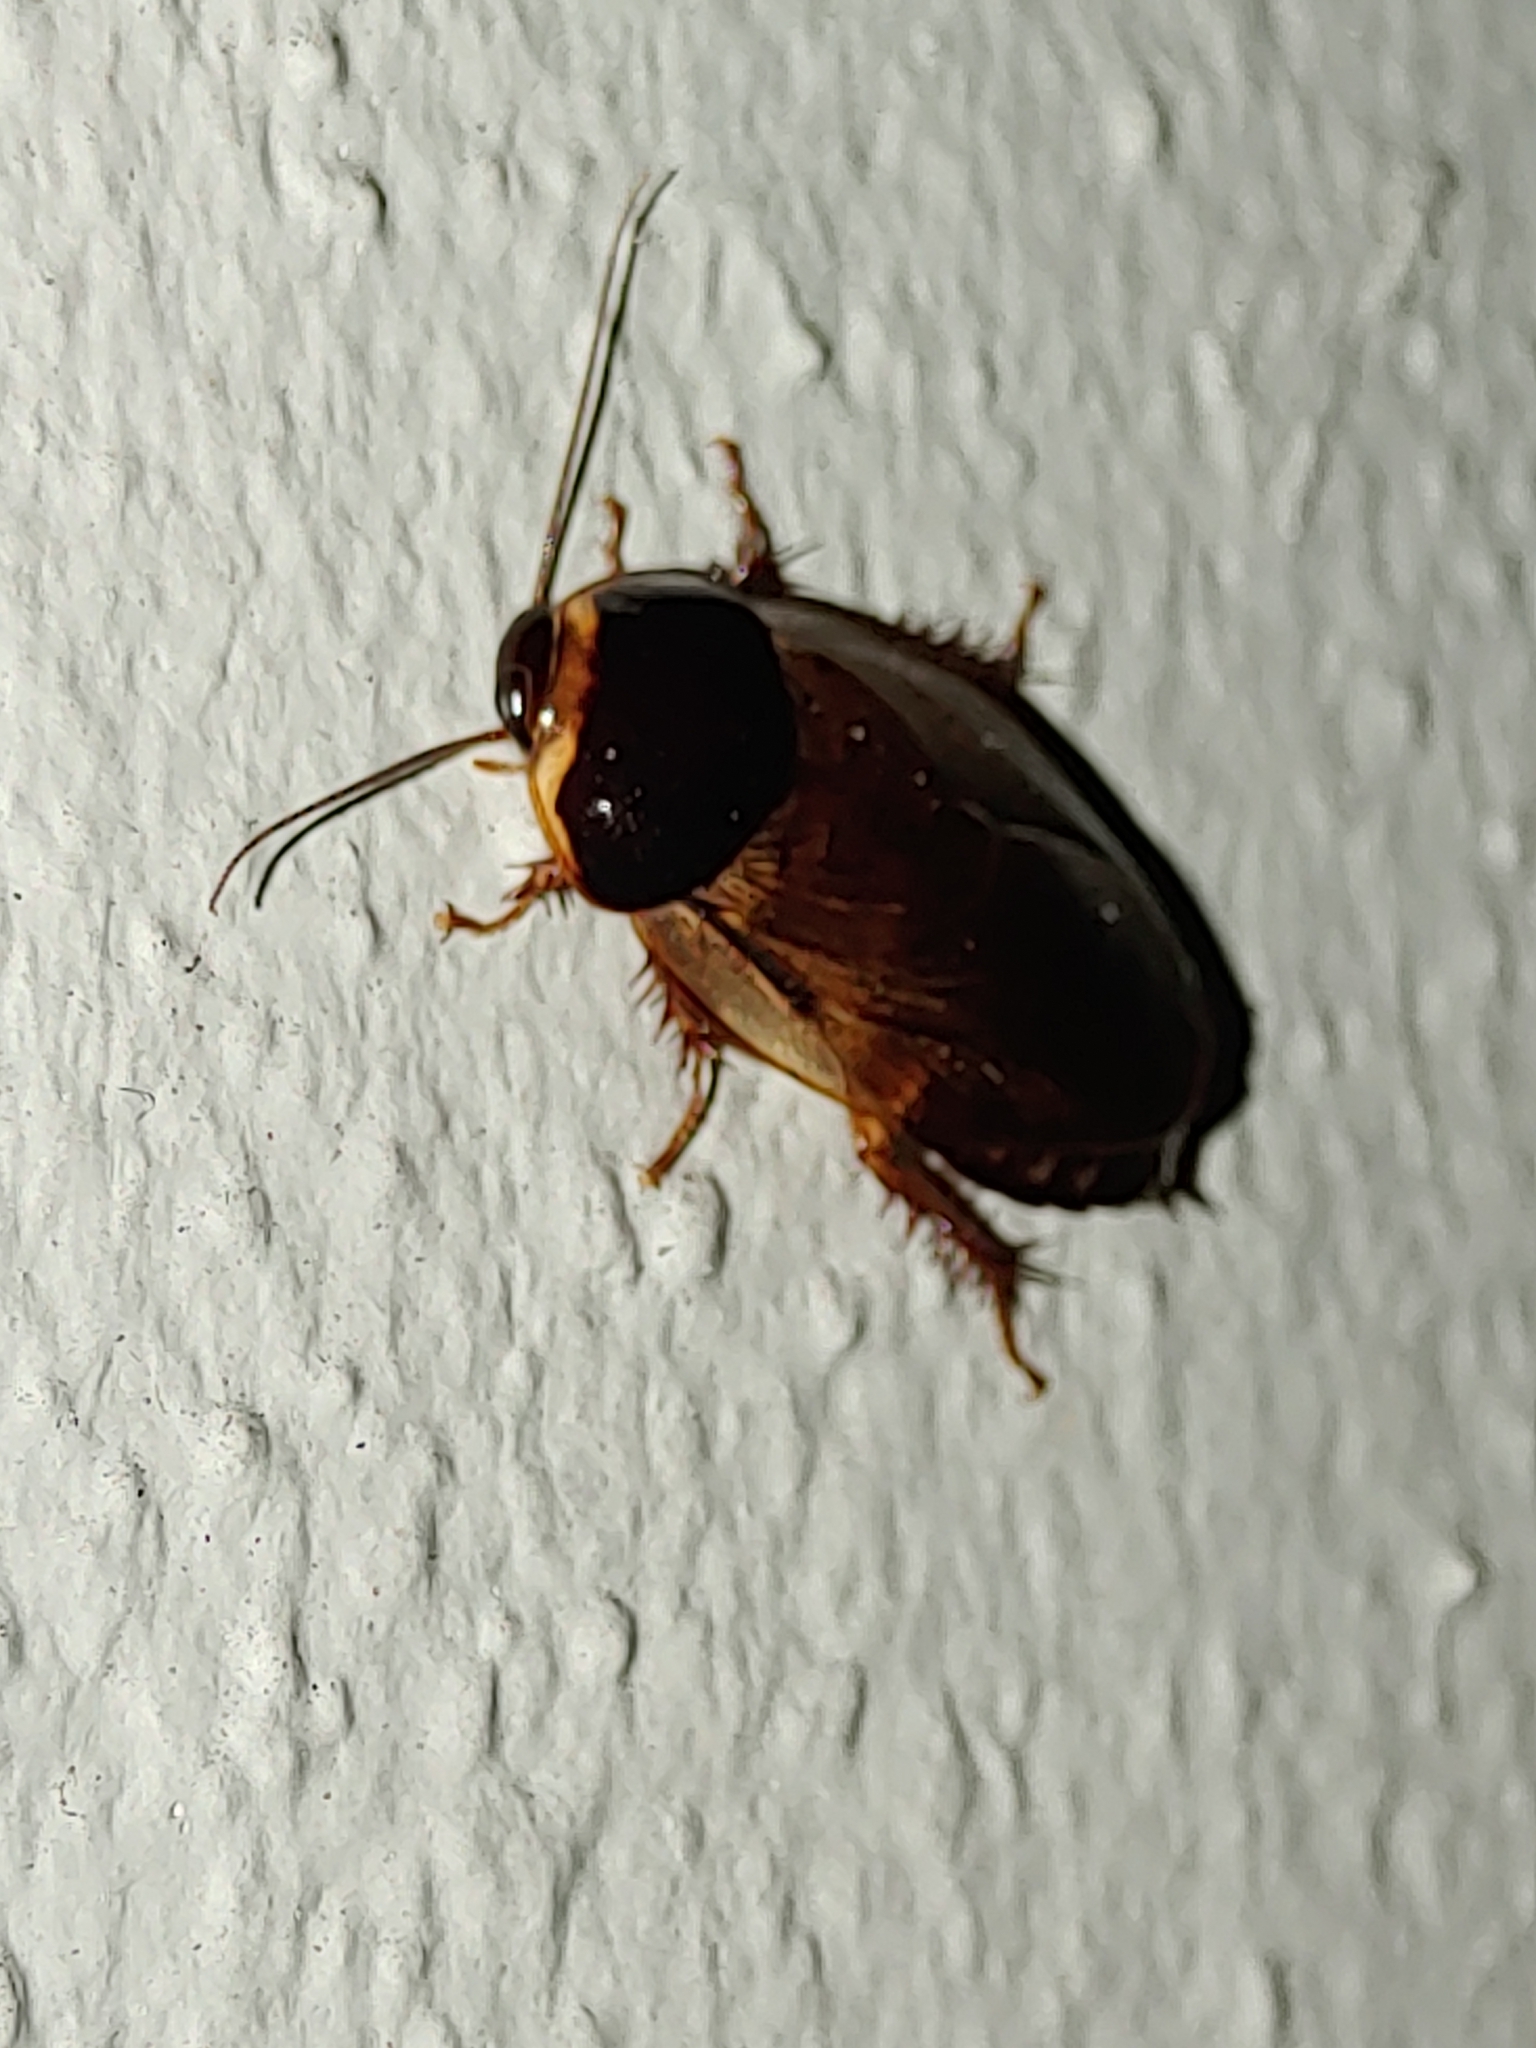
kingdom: Animalia
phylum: Arthropoda
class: Insecta
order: Blattodea
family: Blaberidae
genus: Pycnoscelus
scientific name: Pycnoscelus surinamensis
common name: Surinam cockroach
